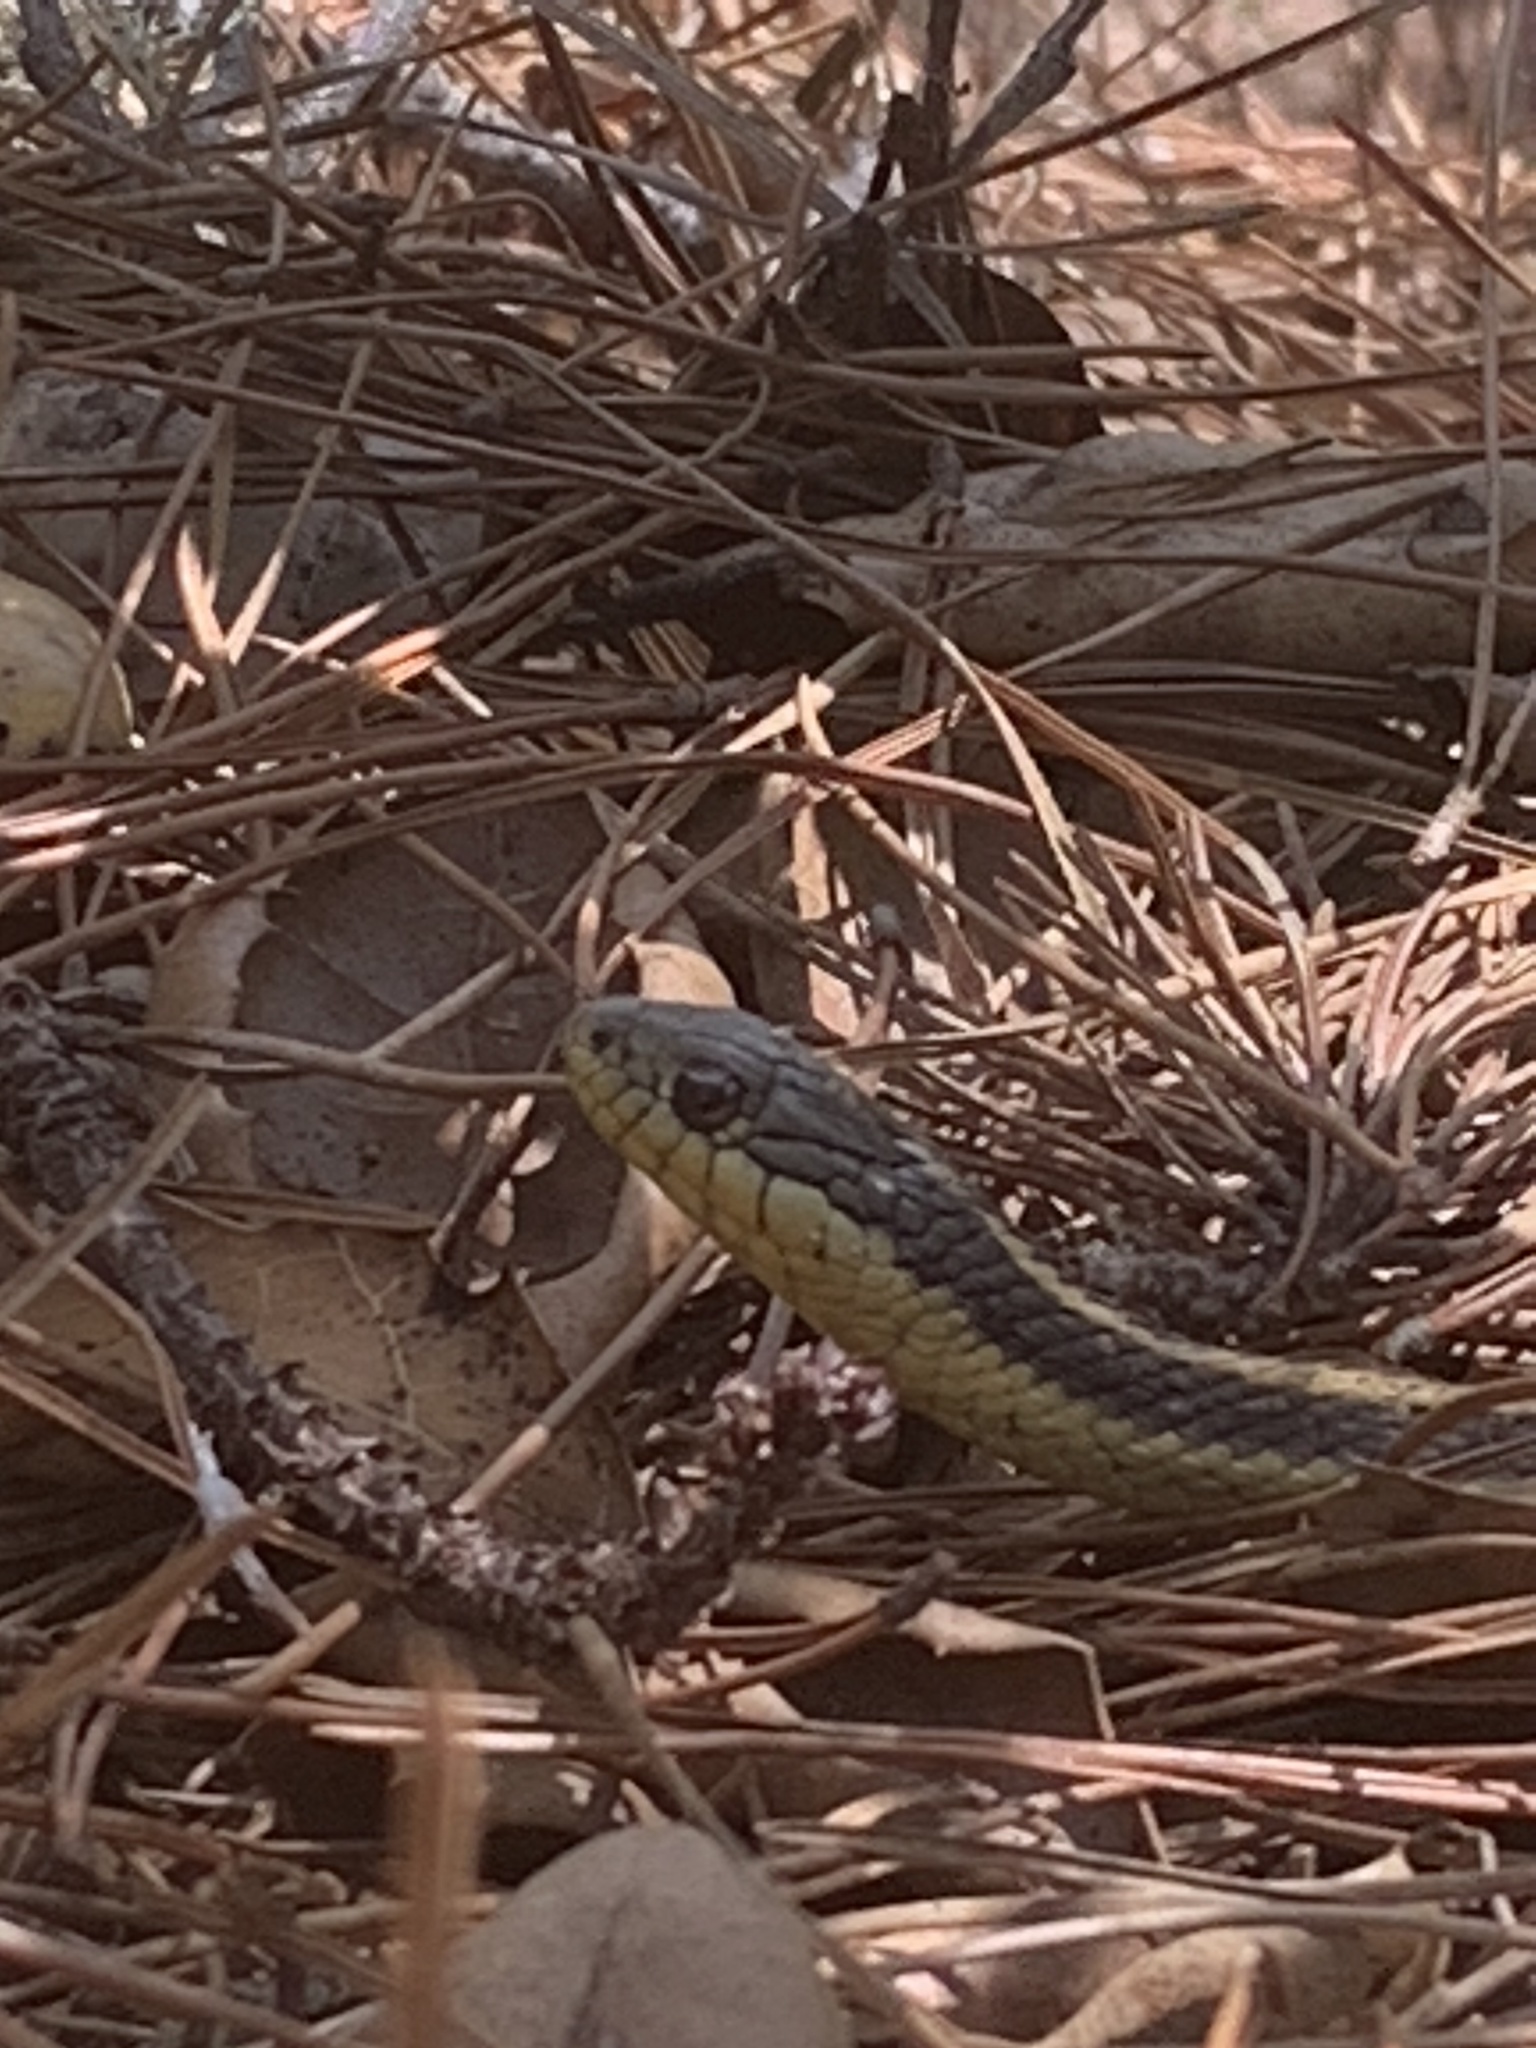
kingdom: Animalia
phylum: Chordata
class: Squamata
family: Colubridae
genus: Thamnophis
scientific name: Thamnophis atratus
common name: Pacific coast aquatic garter snake
